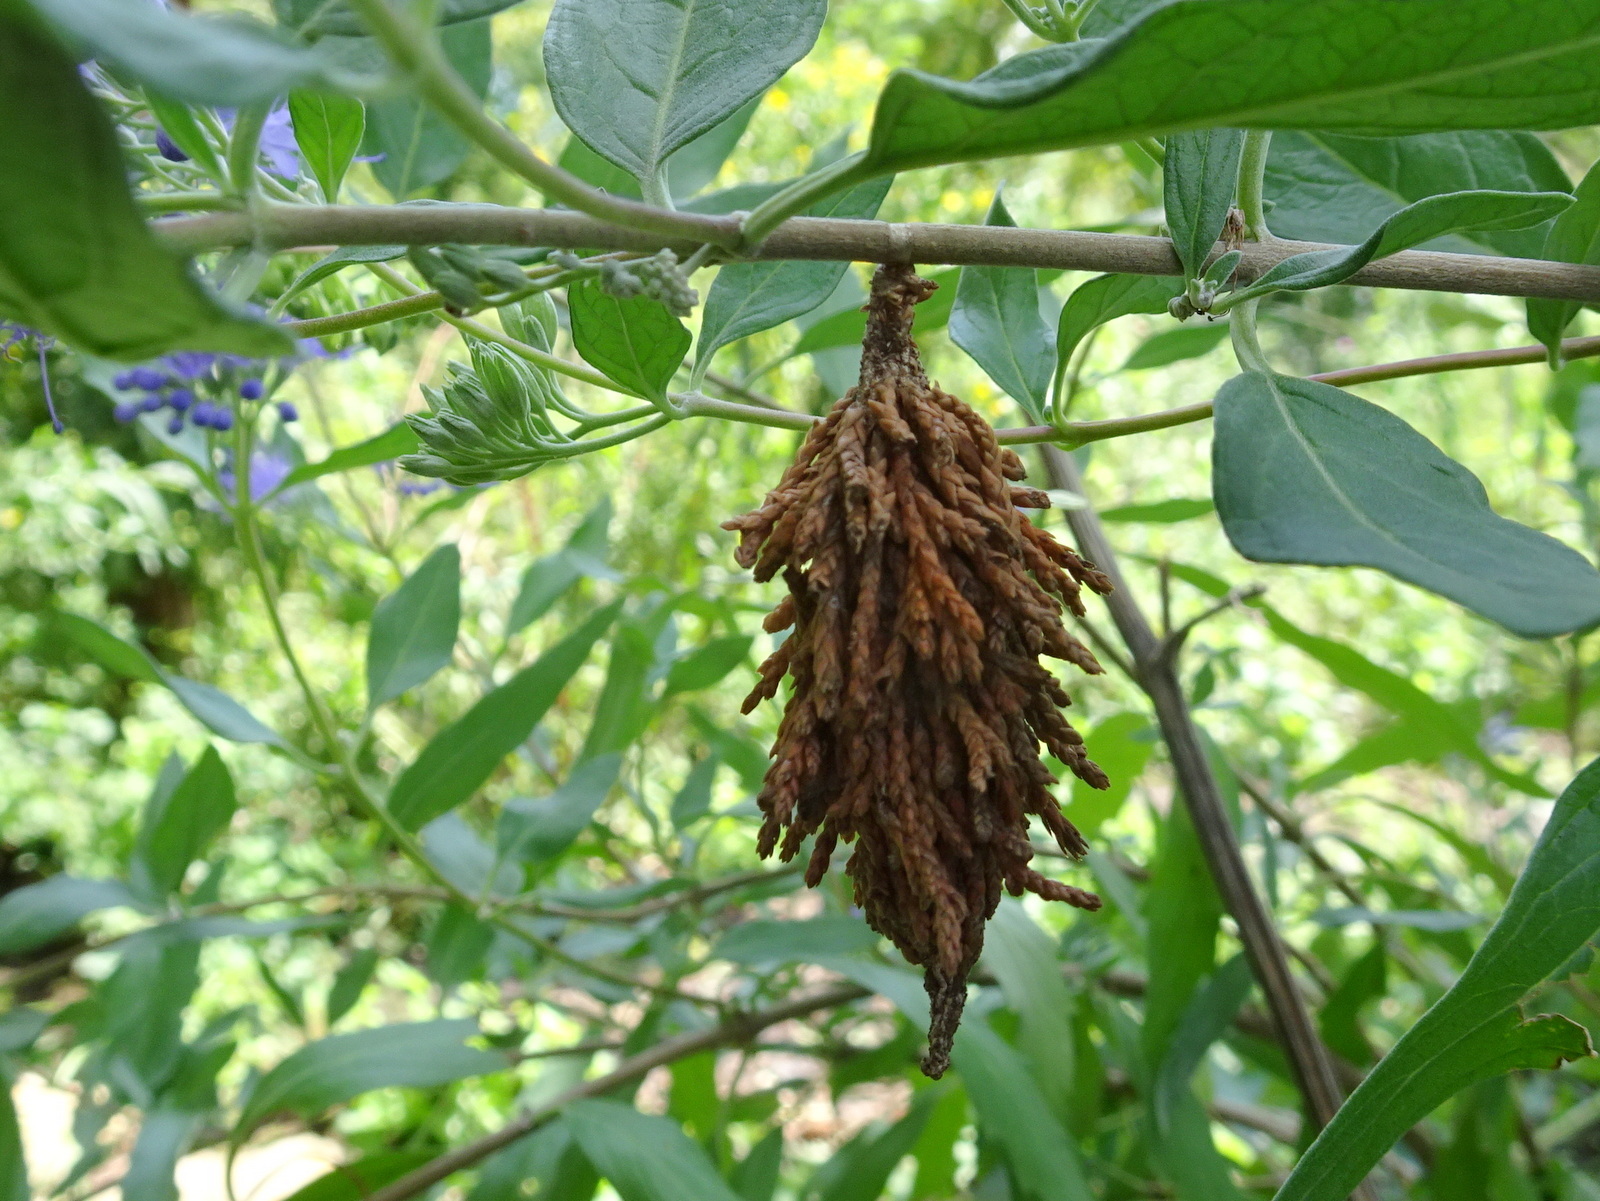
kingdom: Animalia
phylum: Arthropoda
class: Insecta
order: Lepidoptera
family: Psychidae
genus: Thyridopteryx
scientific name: Thyridopteryx ephemeraeformis
